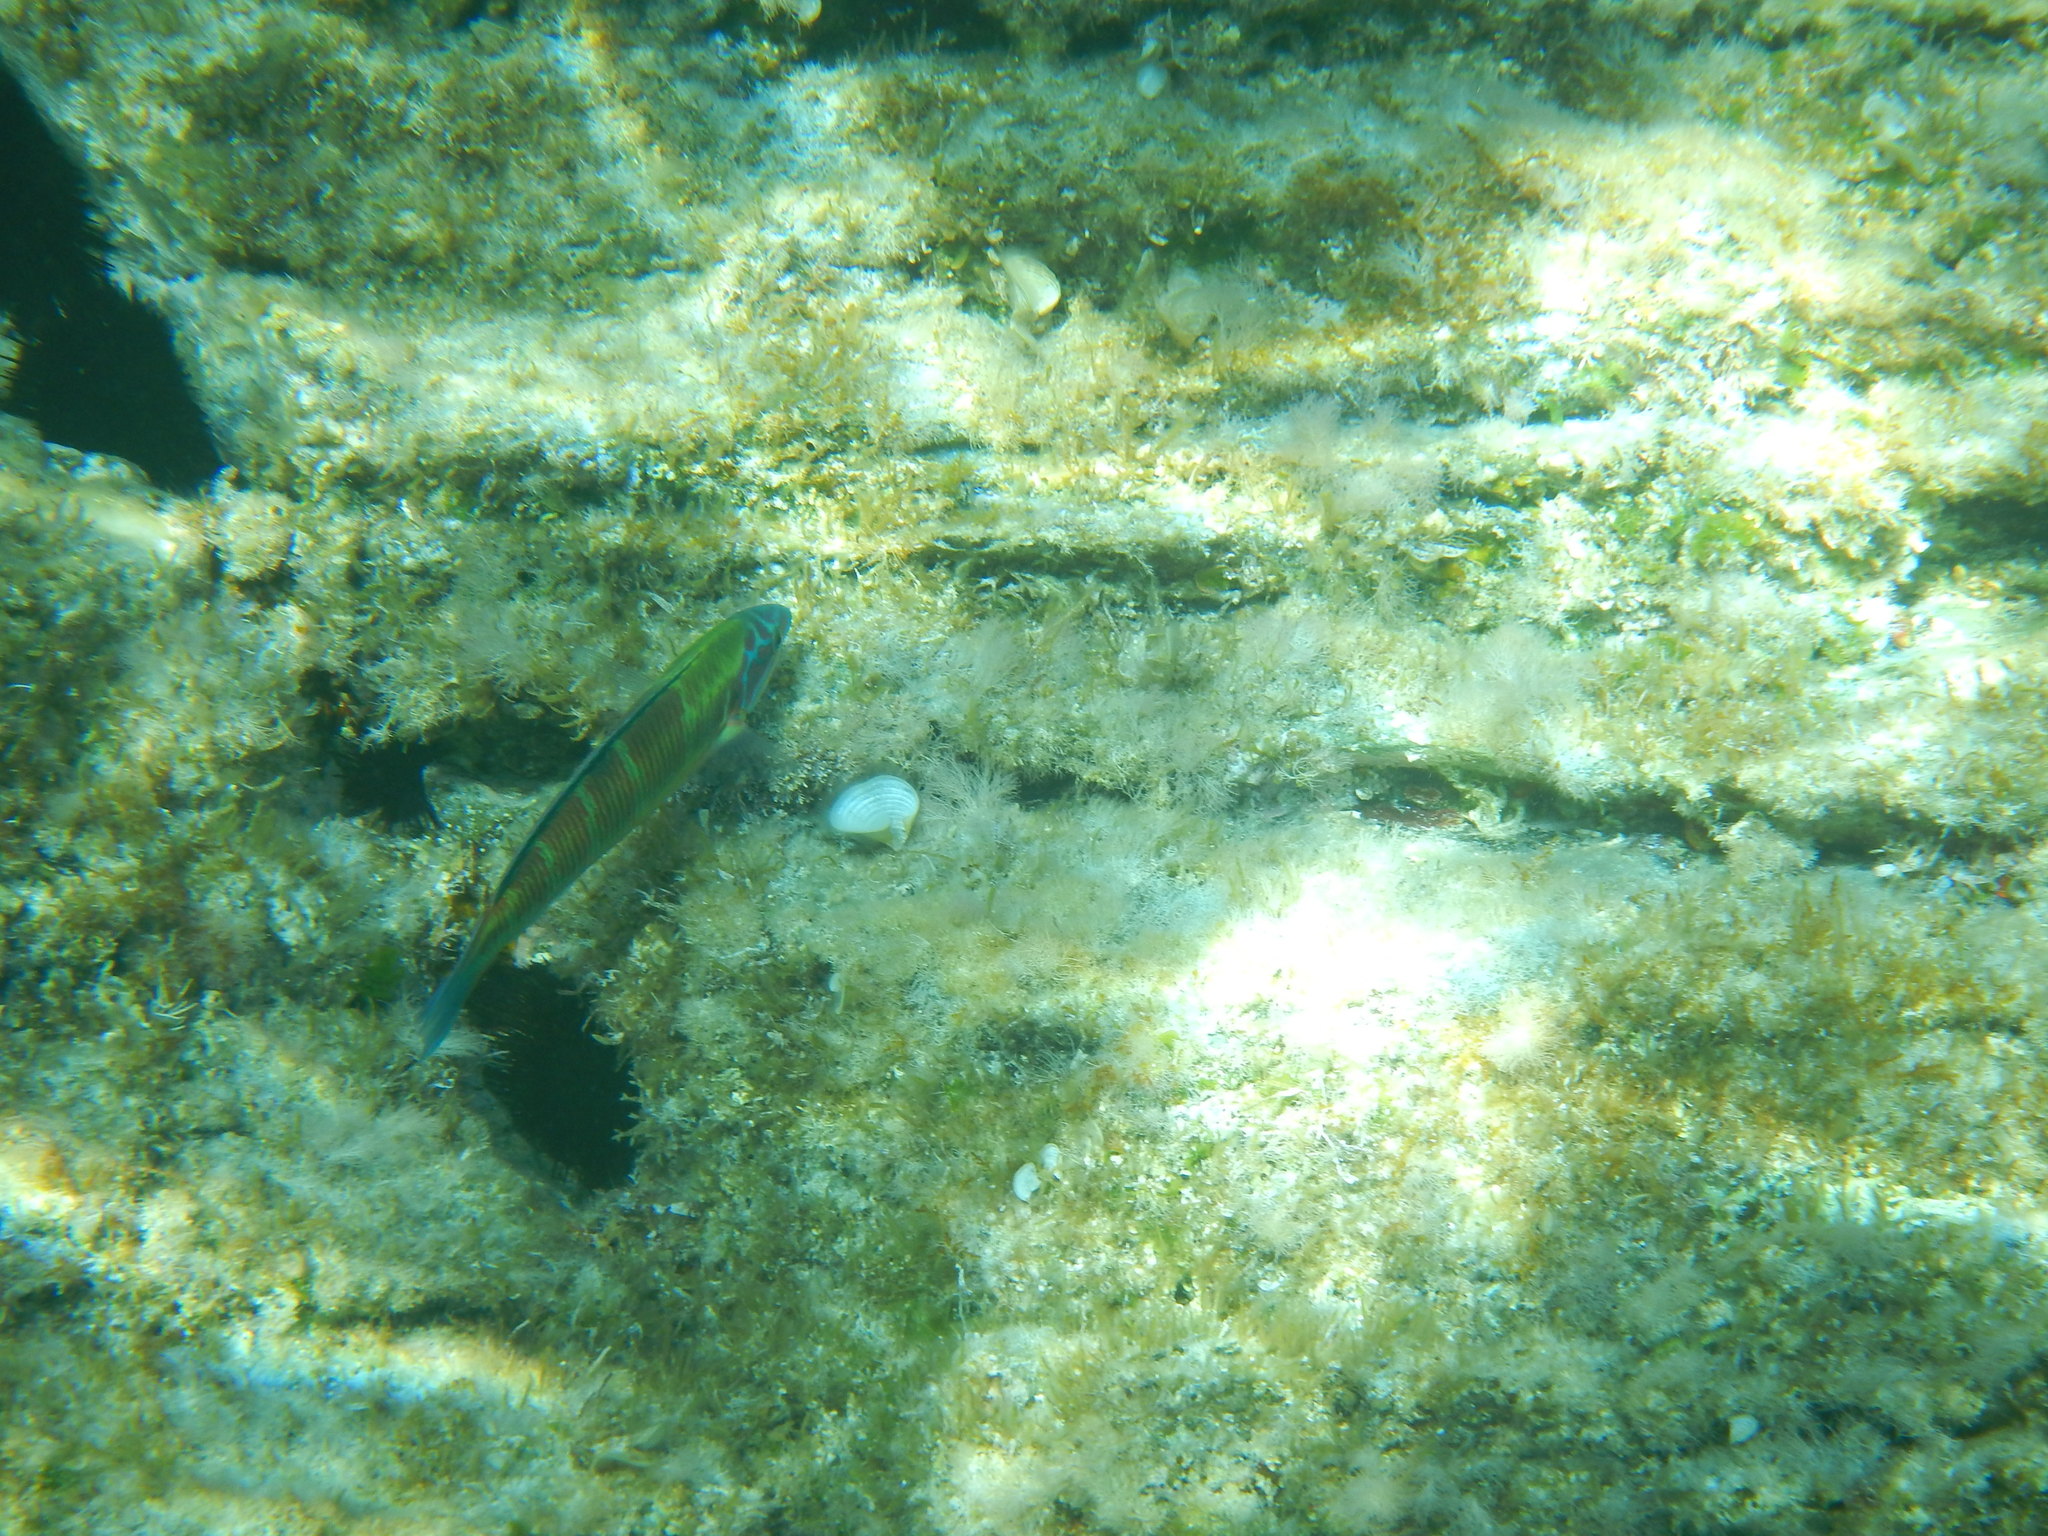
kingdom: Animalia
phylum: Chordata
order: Perciformes
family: Labridae
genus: Thalassoma
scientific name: Thalassoma pavo
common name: Ornate wrasse
